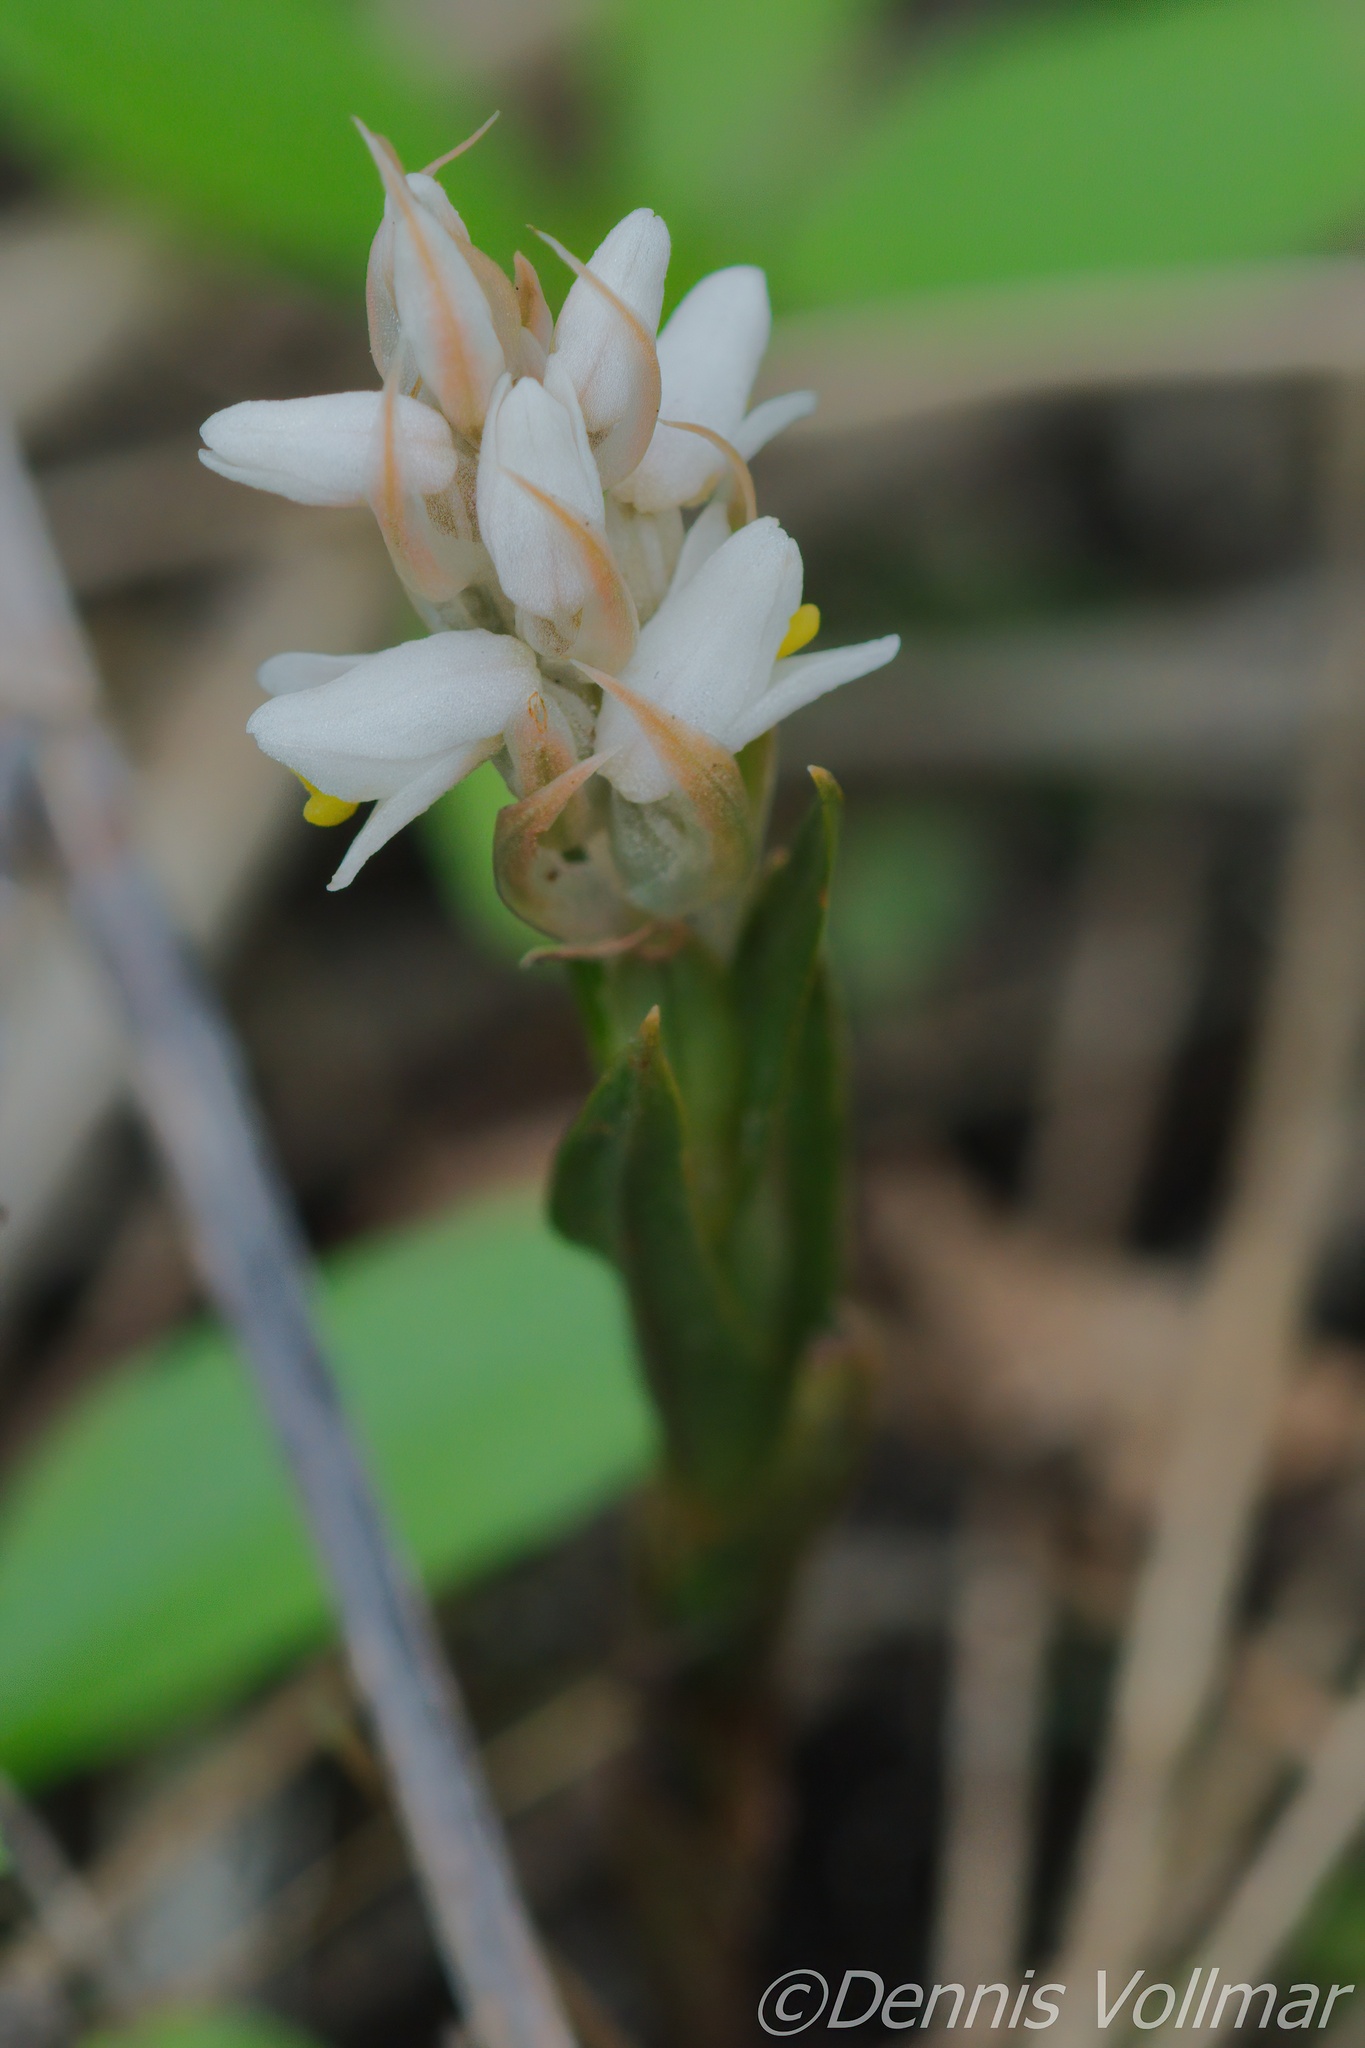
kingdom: Plantae
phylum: Tracheophyta
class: Liliopsida
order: Asparagales
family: Orchidaceae
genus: Zeuxine
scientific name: Zeuxine strateumatica
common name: Soldier's orchid
